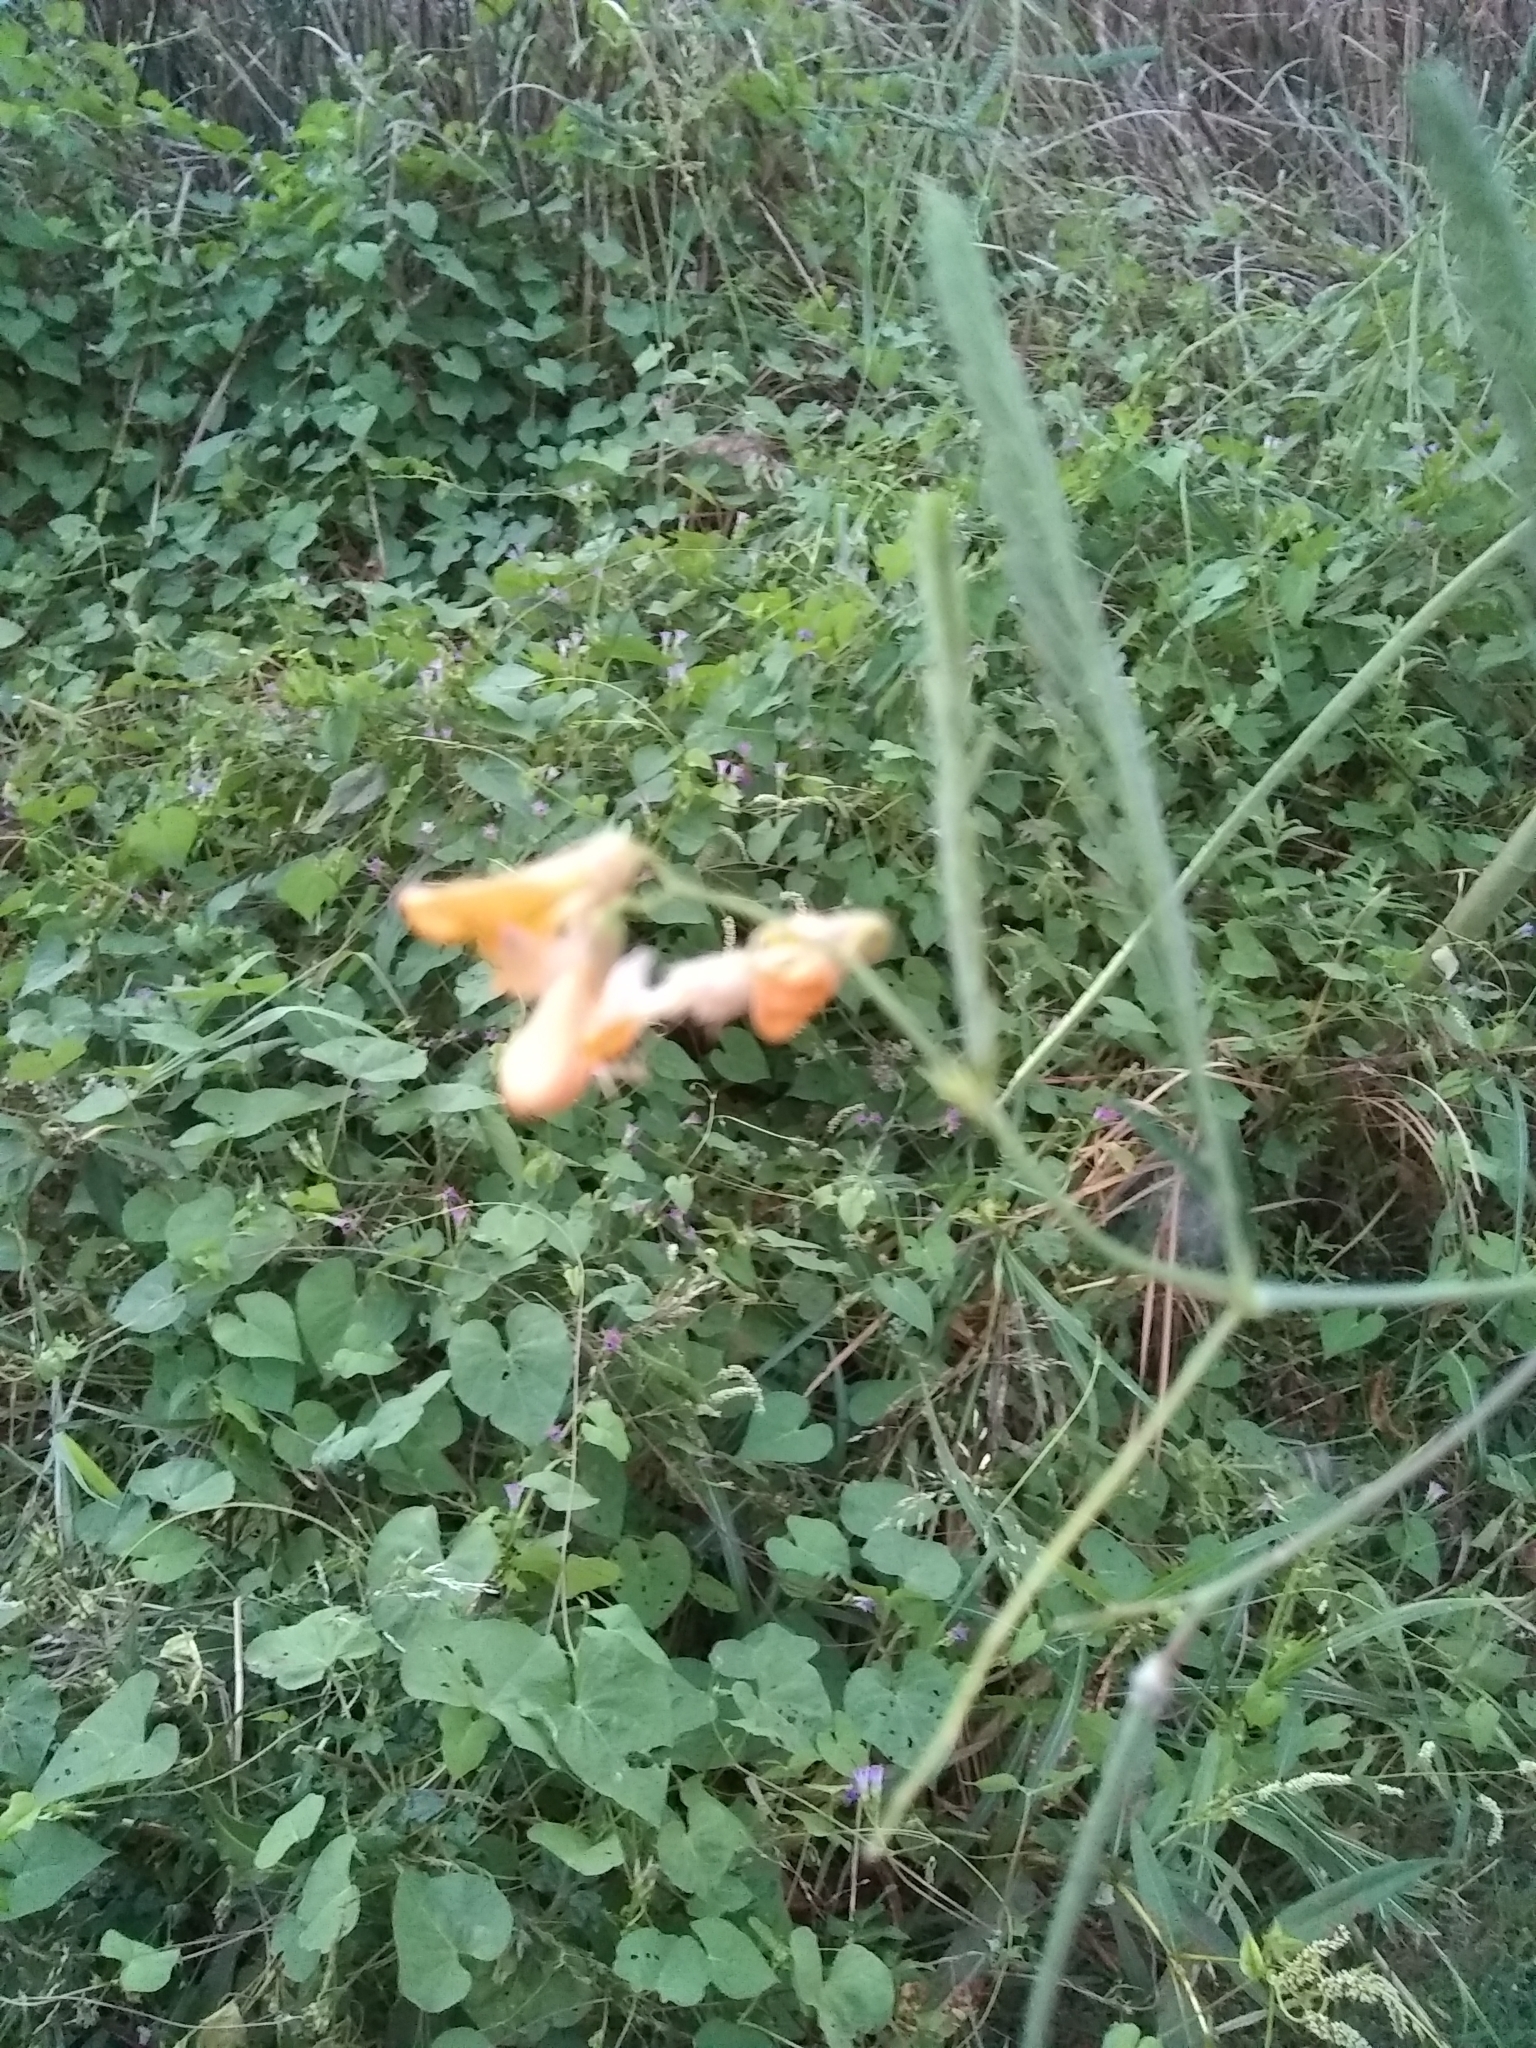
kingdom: Plantae
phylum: Tracheophyta
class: Magnoliopsida
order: Fabales
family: Fabaceae
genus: Sesbania
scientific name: Sesbania herbacea
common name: Bigpod sesbania
